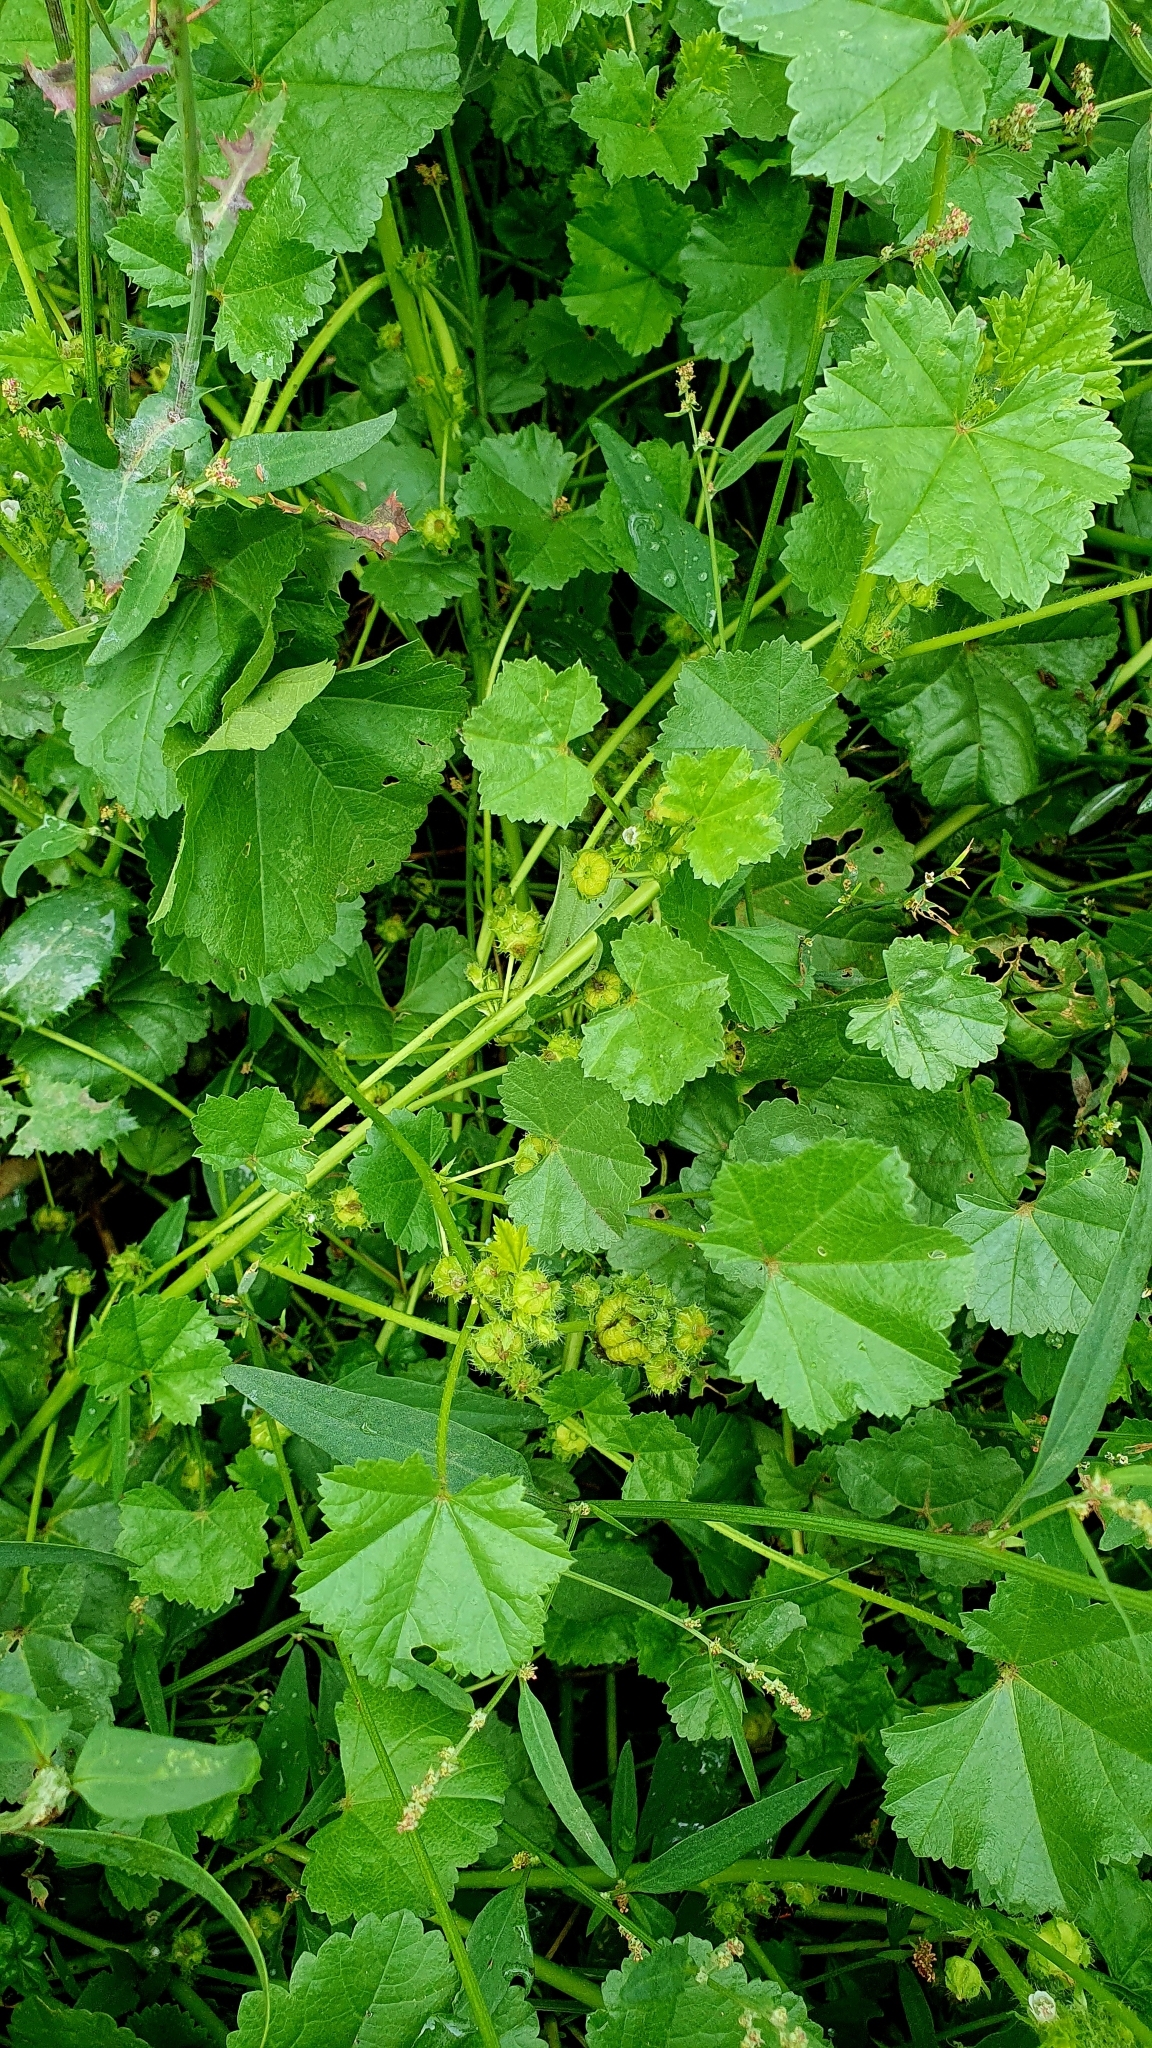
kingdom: Plantae
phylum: Tracheophyta
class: Magnoliopsida
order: Malvales
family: Malvaceae
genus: Malva
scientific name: Malva pusilla
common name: Small mallow
